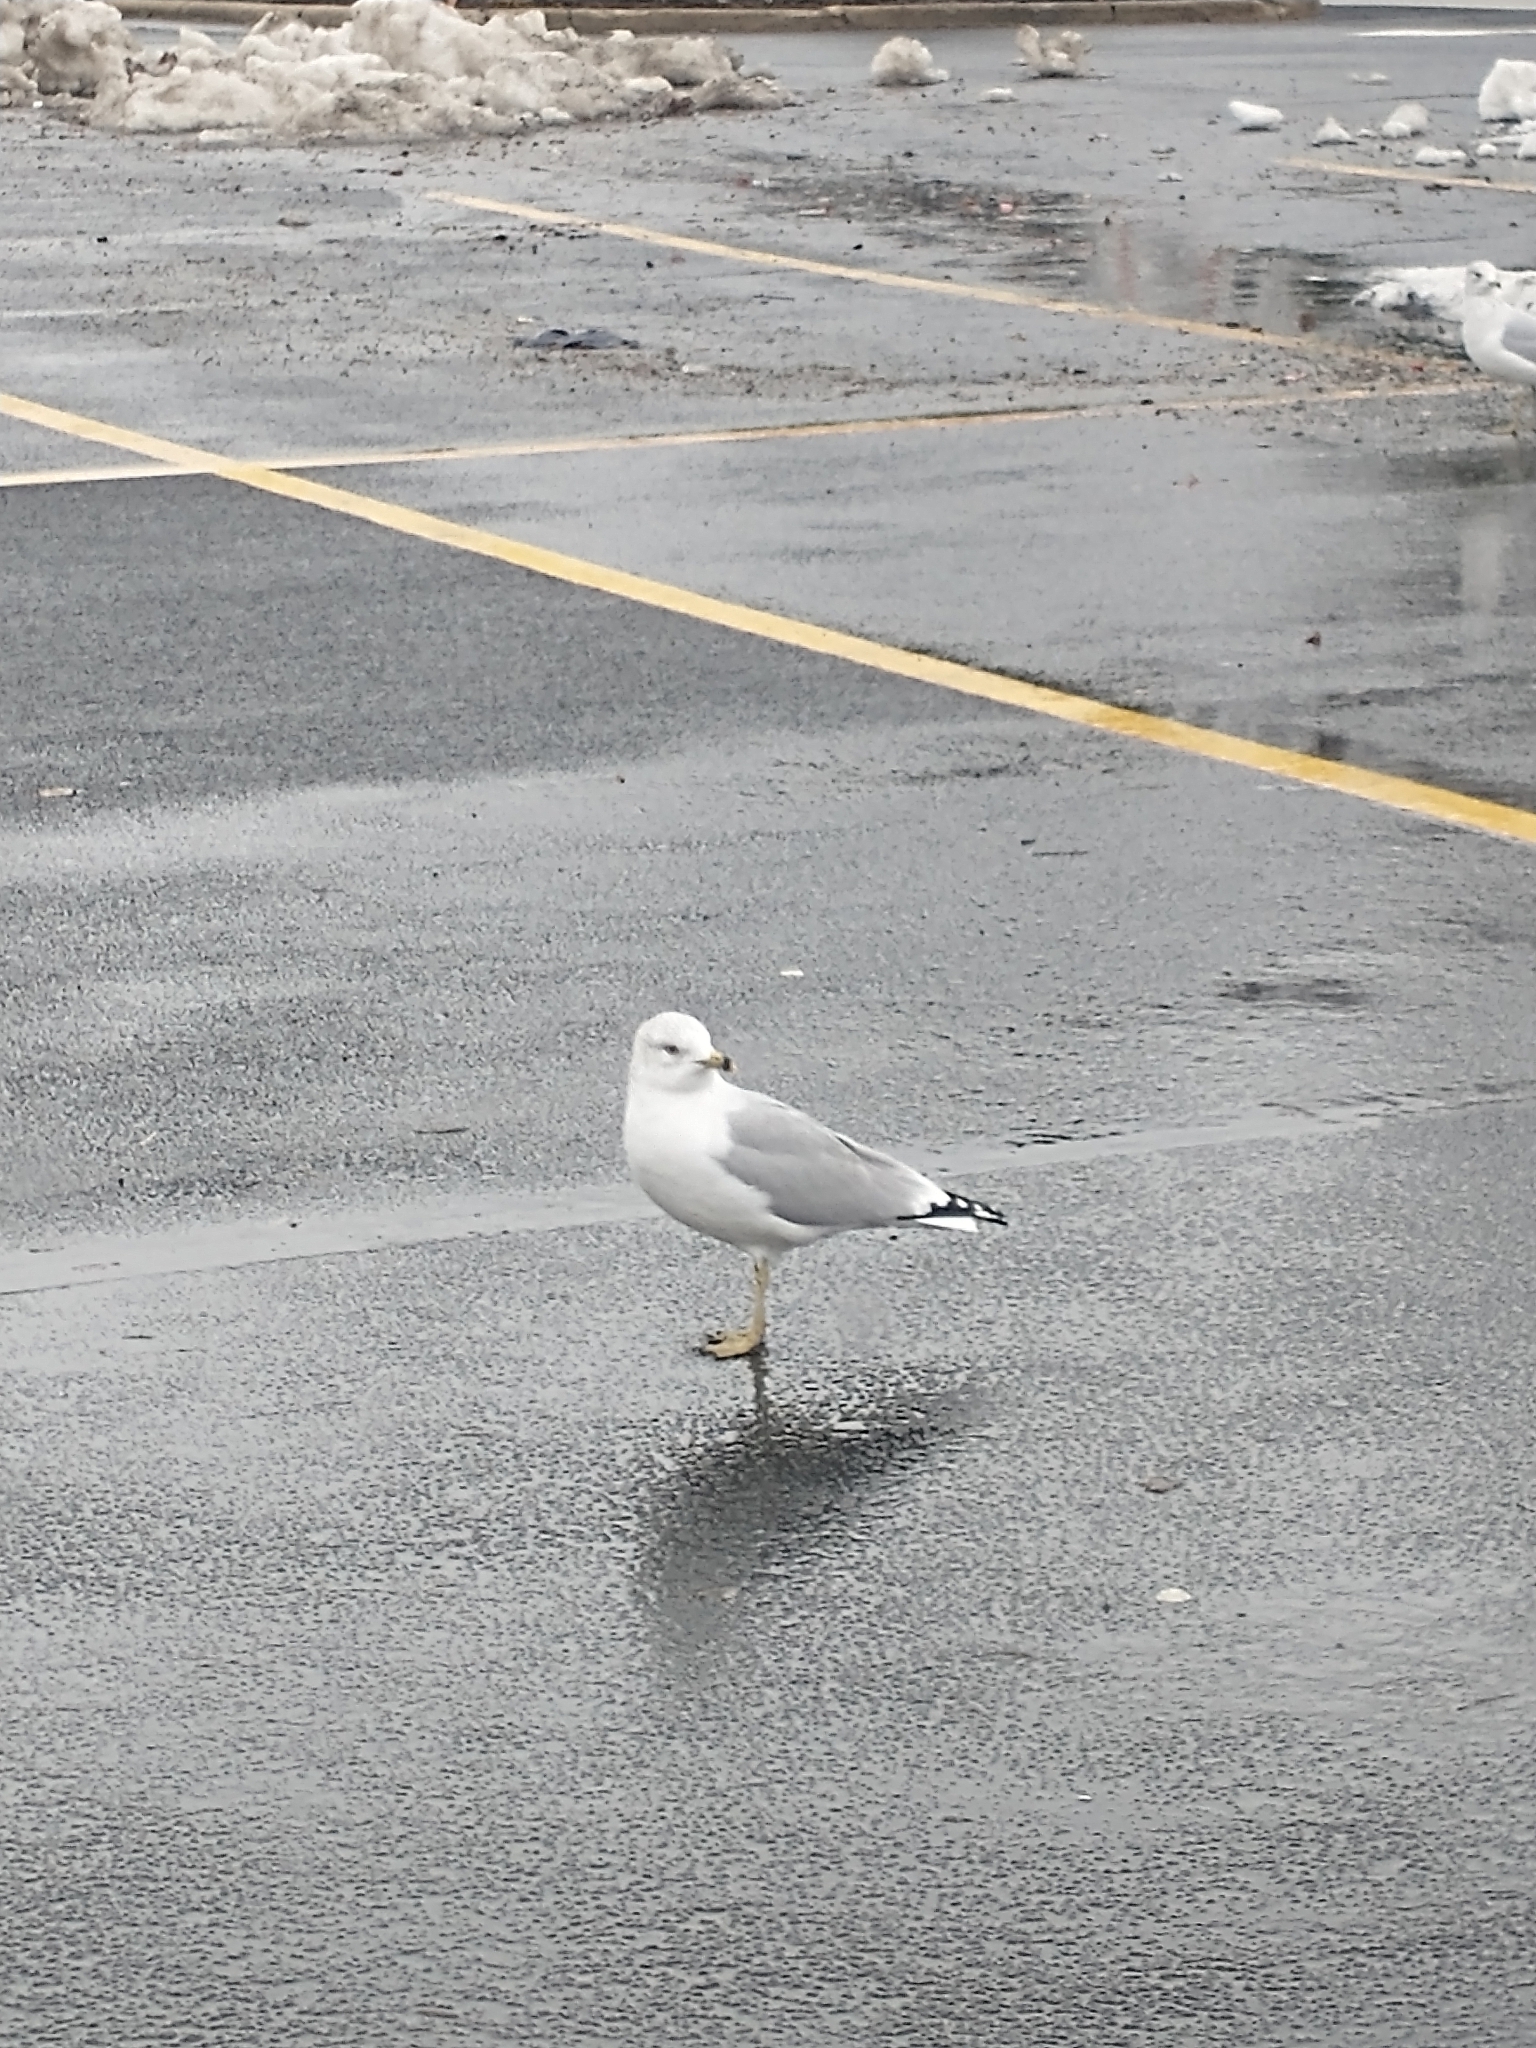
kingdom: Animalia
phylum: Chordata
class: Aves
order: Charadriiformes
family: Laridae
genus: Larus
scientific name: Larus delawarensis
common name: Ring-billed gull
